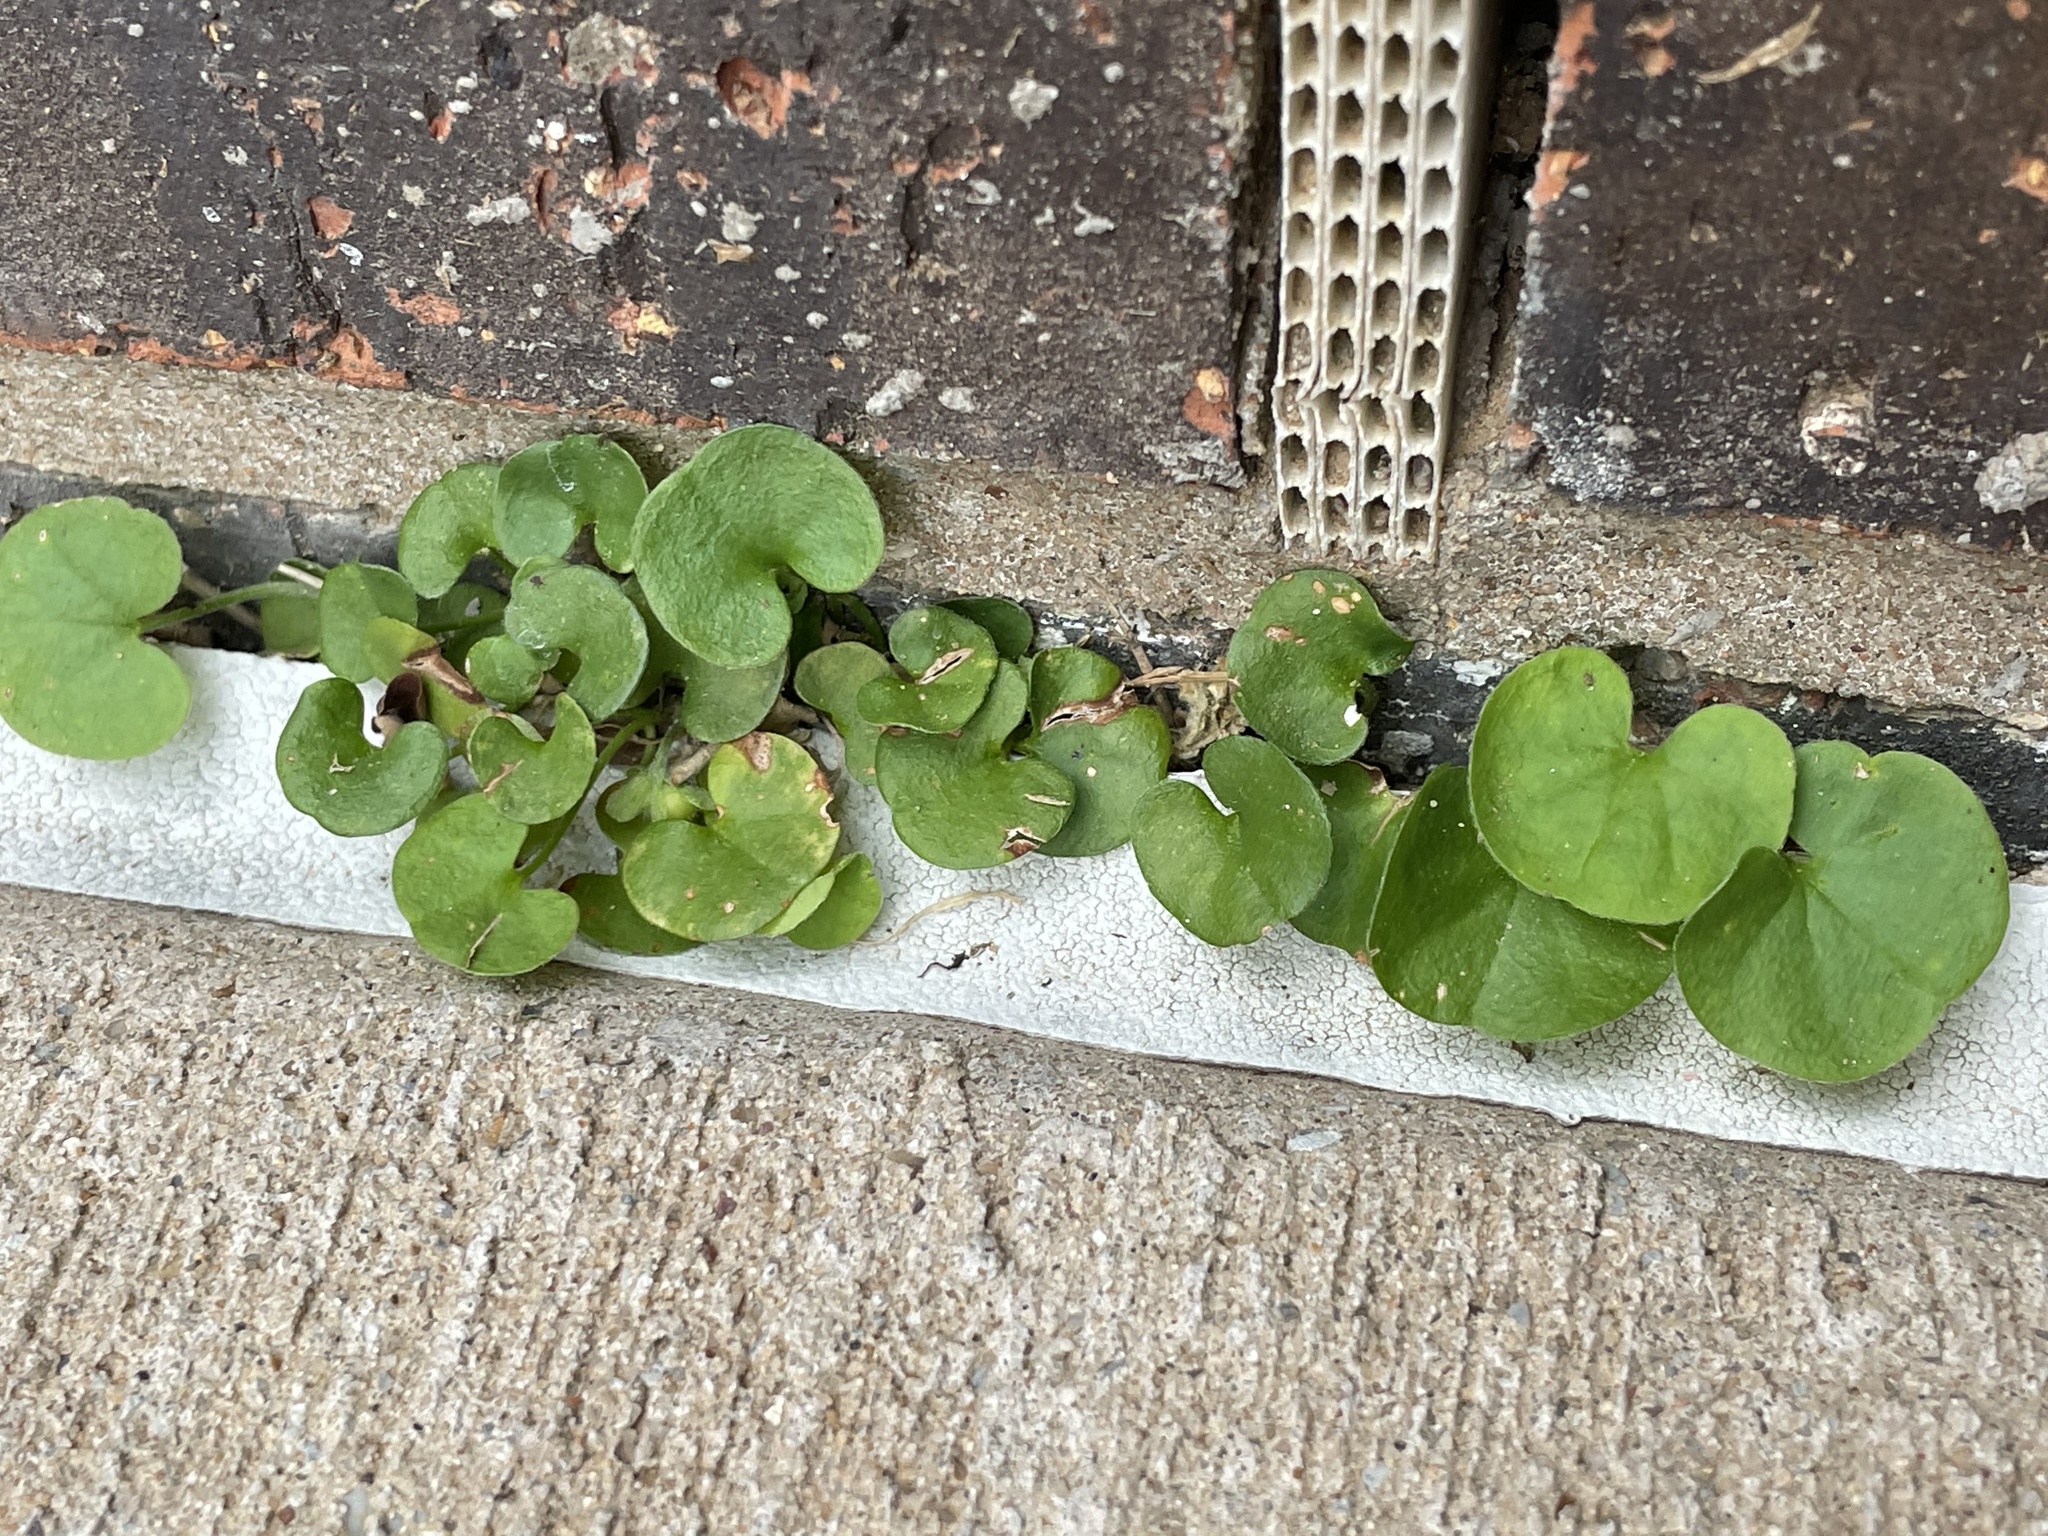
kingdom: Plantae
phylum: Tracheophyta
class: Magnoliopsida
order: Solanales
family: Convolvulaceae
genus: Dichondra
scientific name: Dichondra carolinensis
